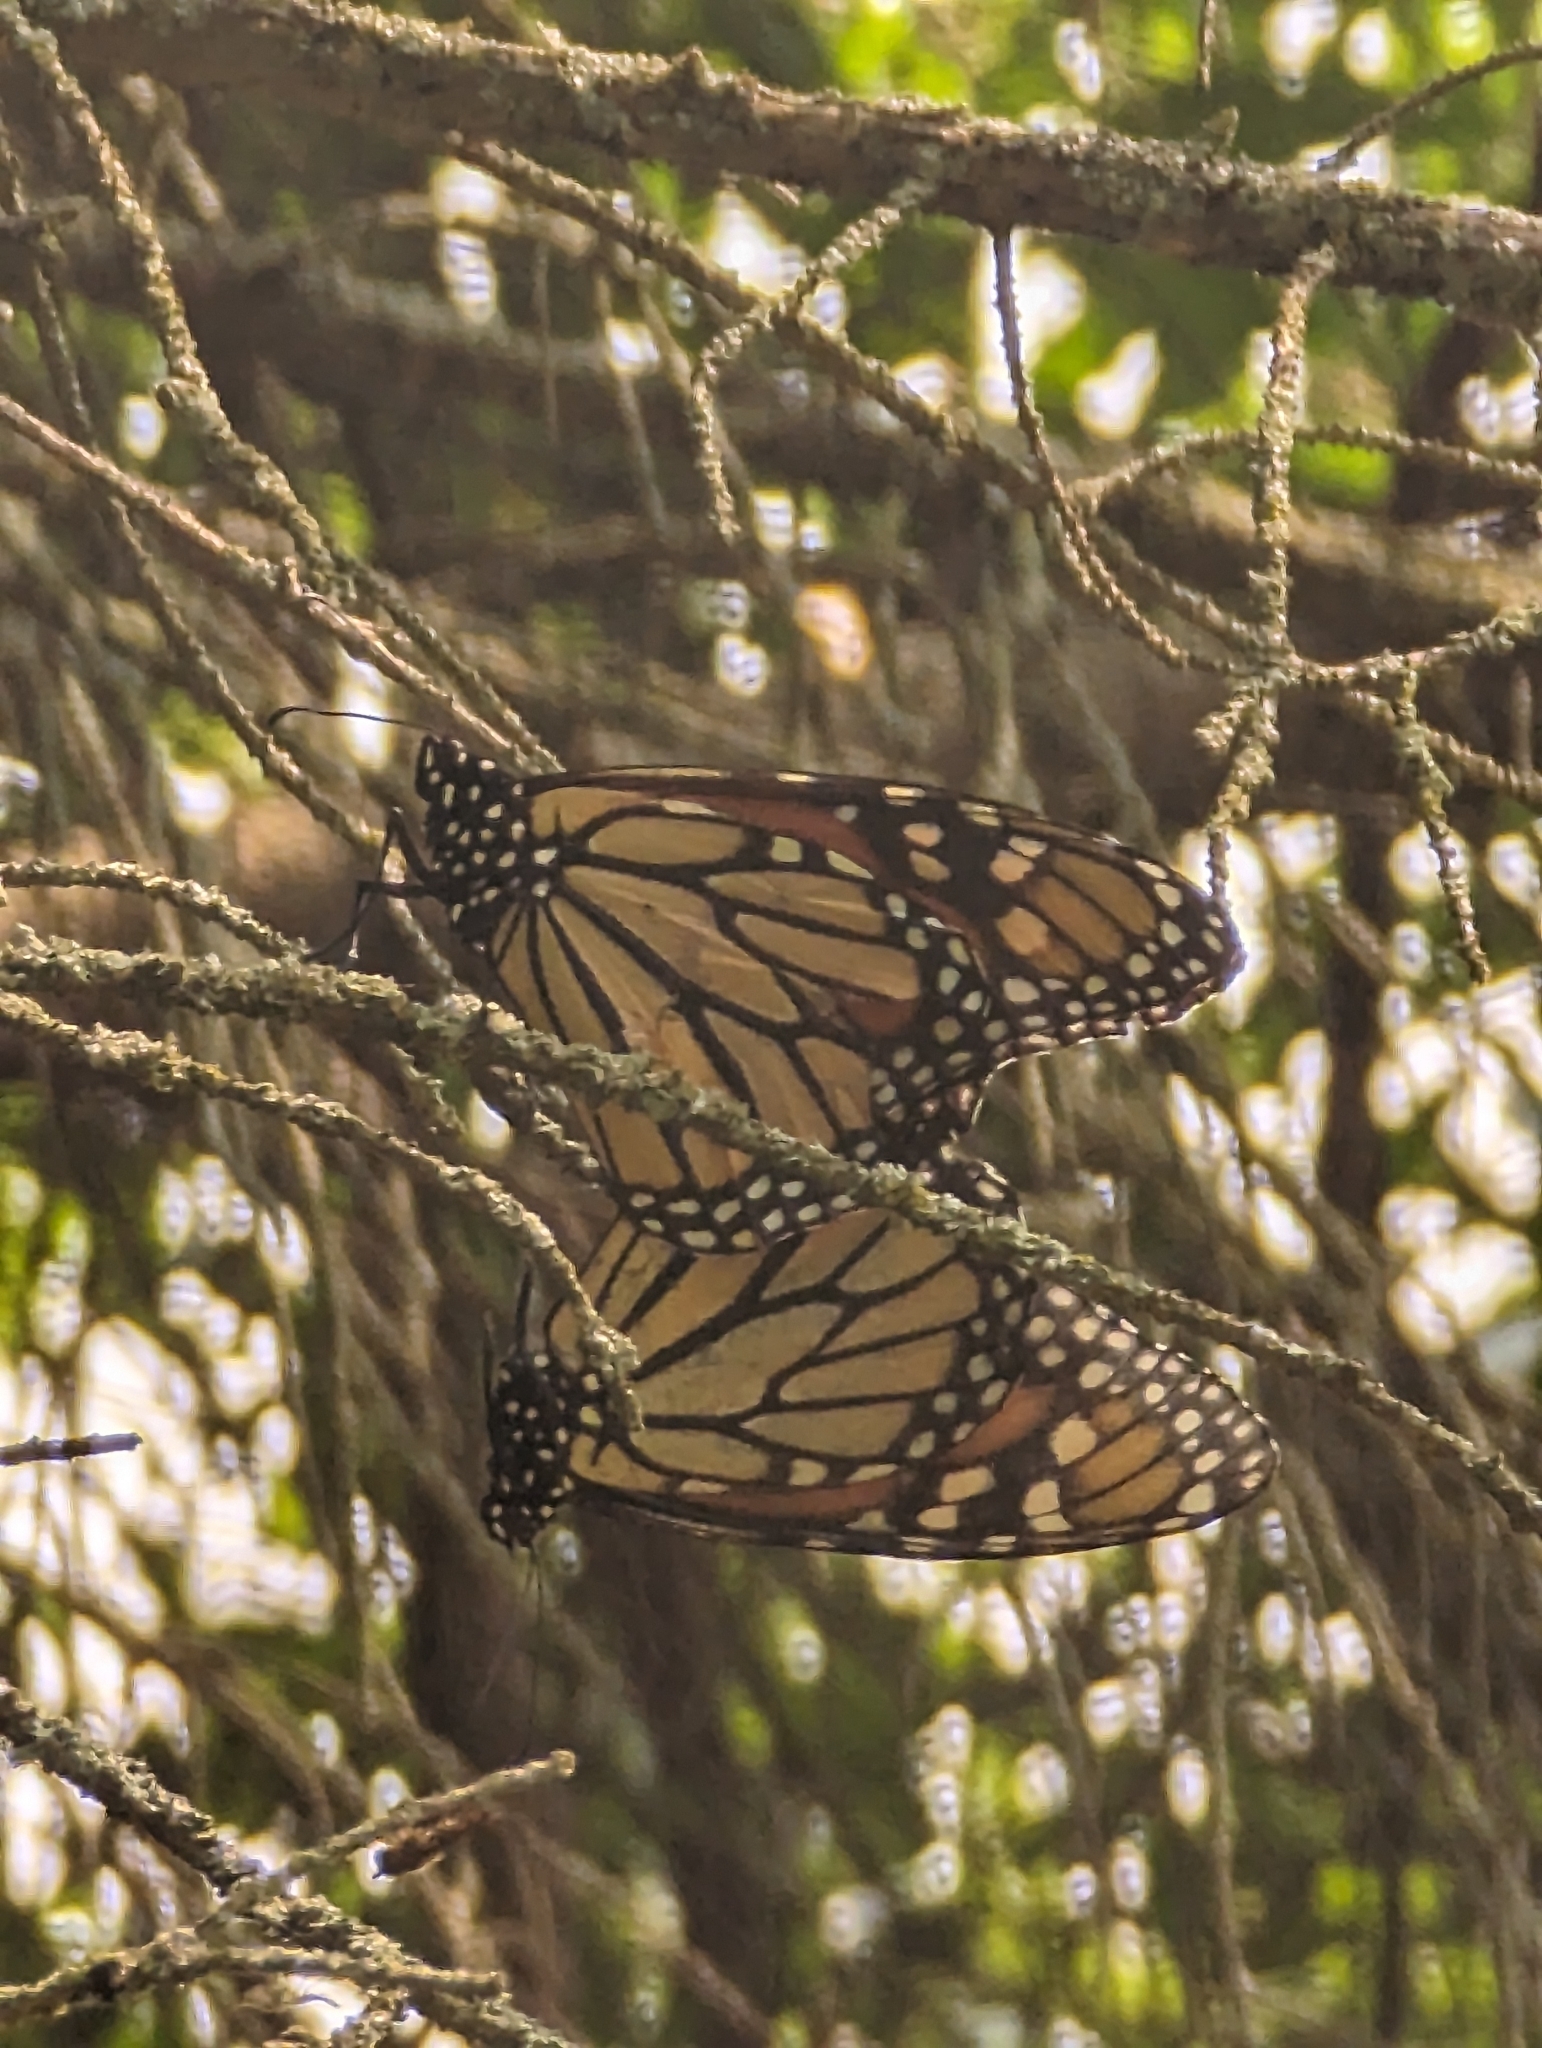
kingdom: Animalia
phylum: Arthropoda
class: Insecta
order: Lepidoptera
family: Nymphalidae
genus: Danaus
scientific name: Danaus plexippus
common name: Monarch
